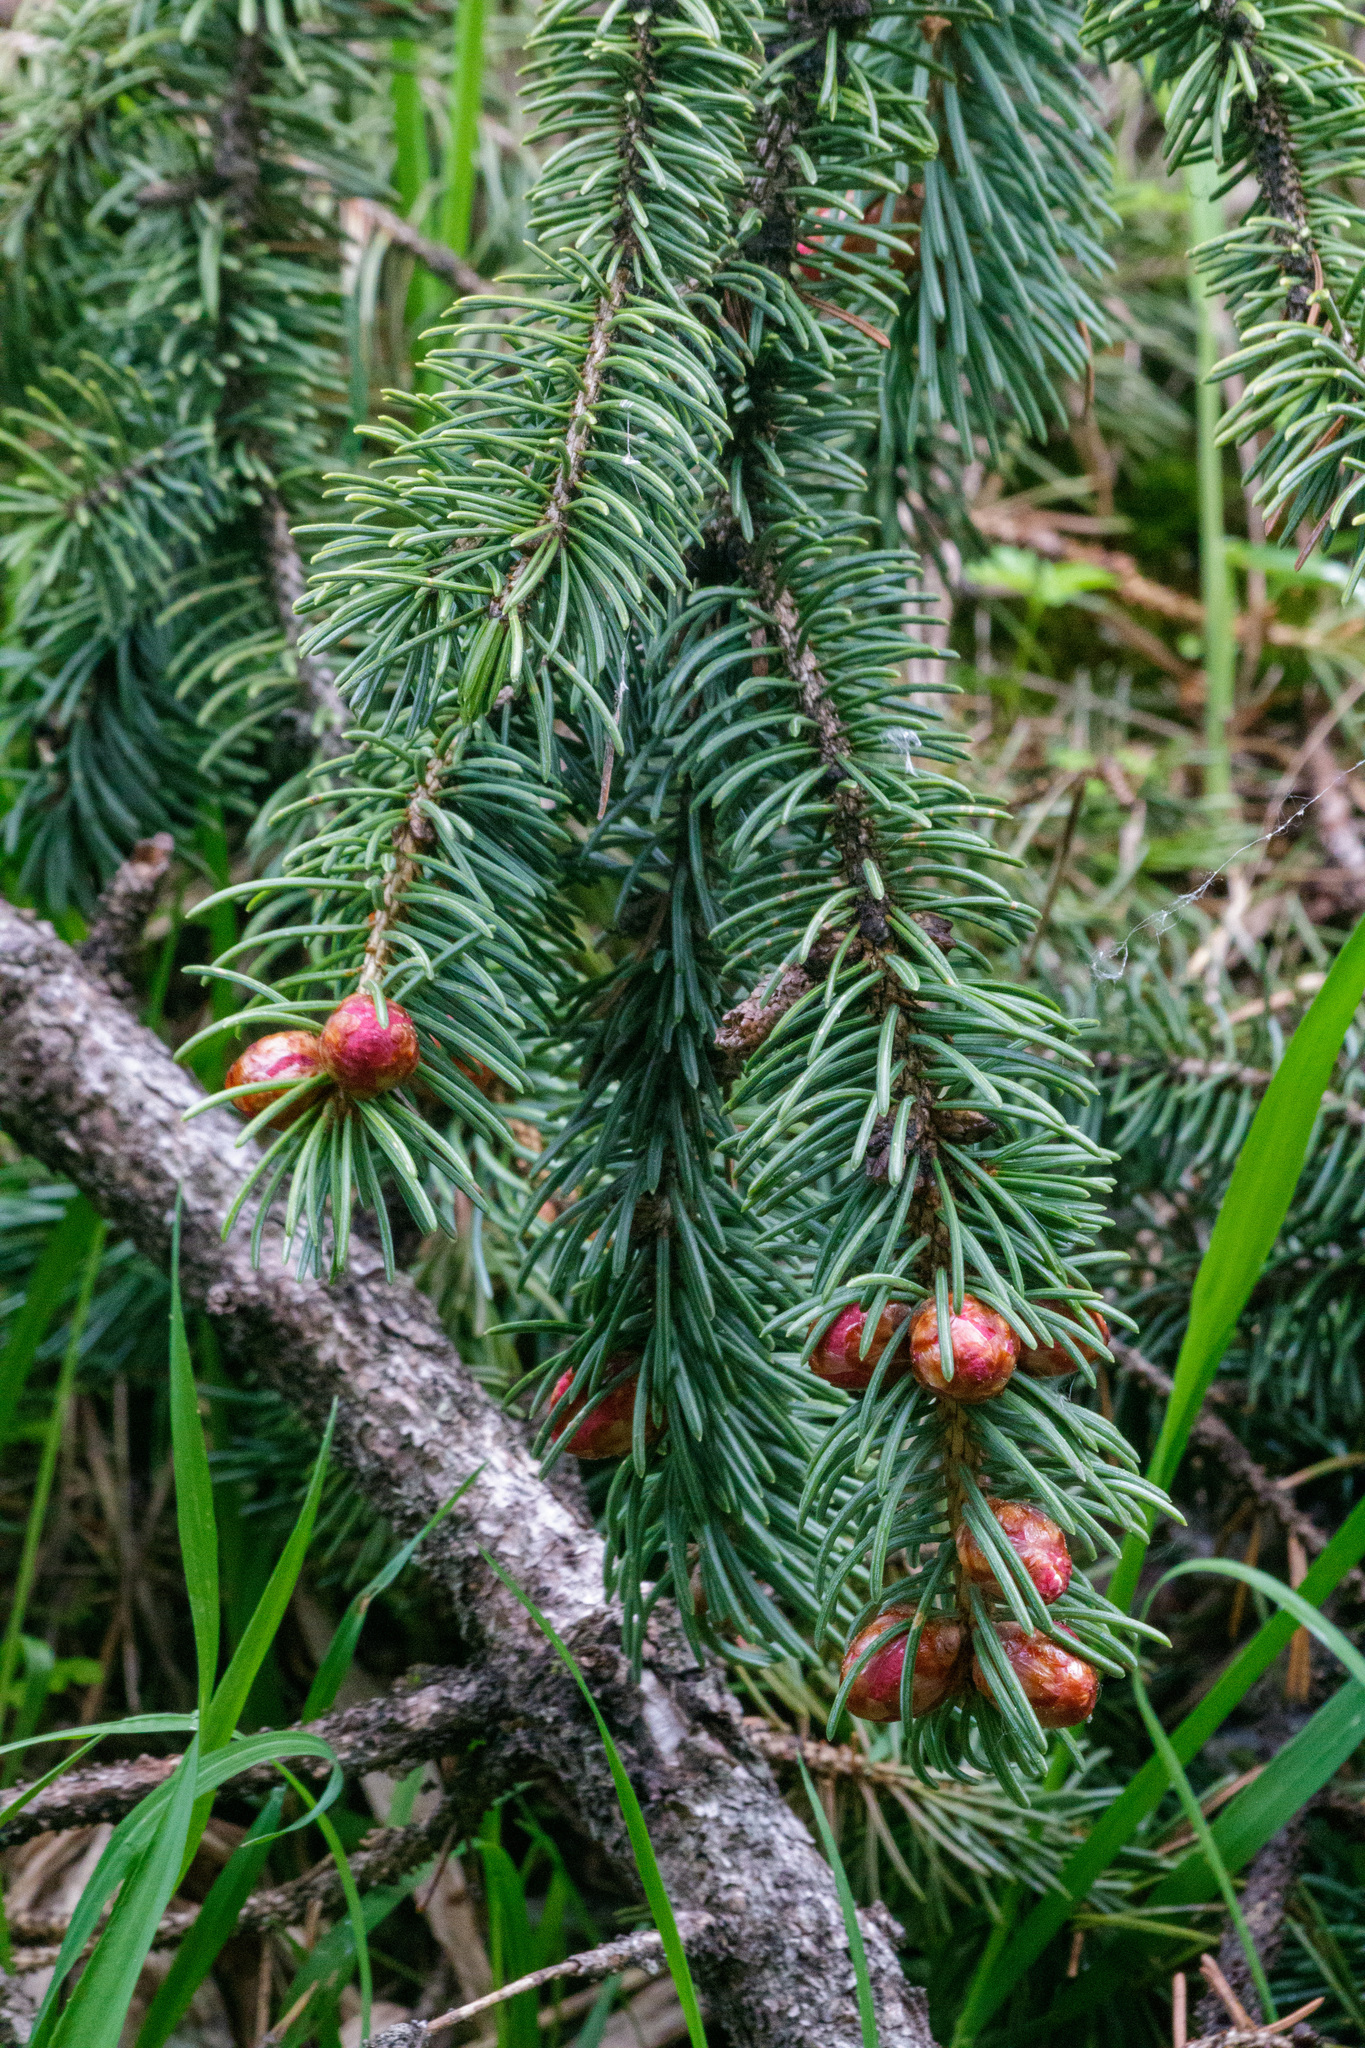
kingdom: Plantae
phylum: Tracheophyta
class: Pinopsida
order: Pinales
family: Pinaceae
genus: Picea
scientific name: Picea schrenkiana
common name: Asian spruce
